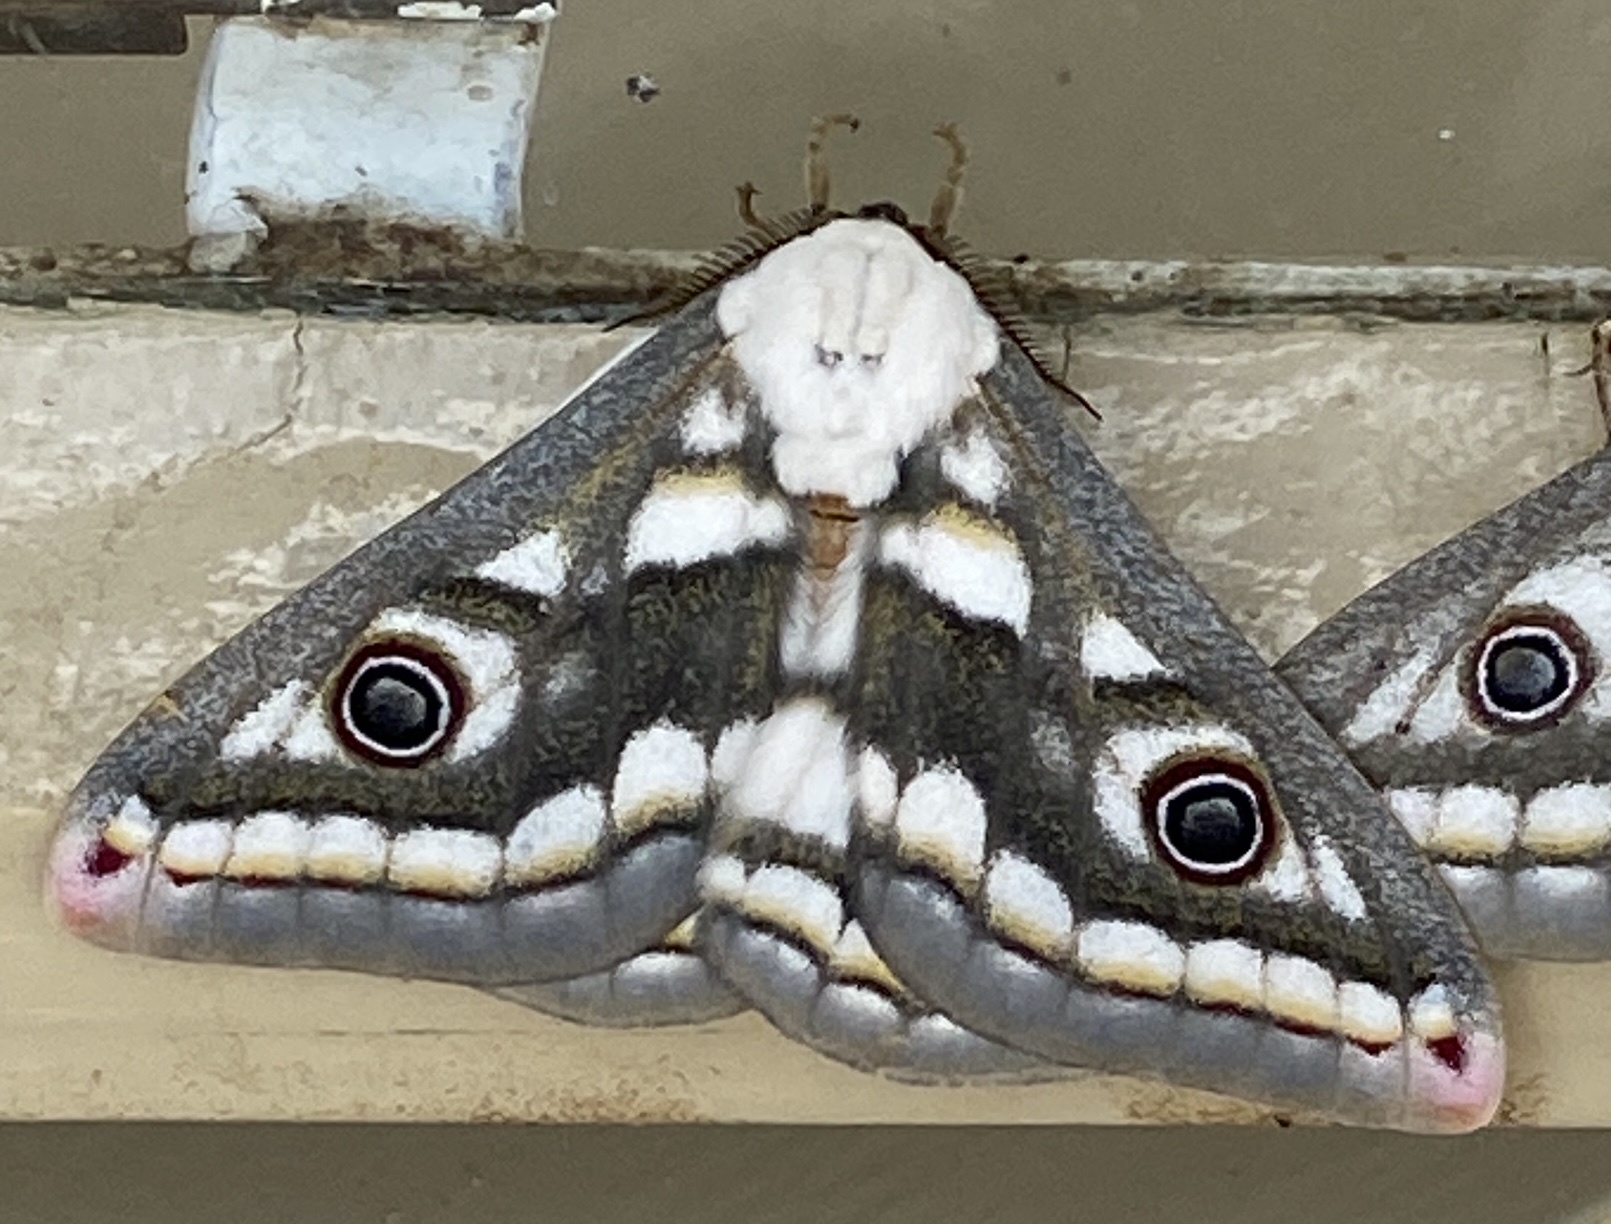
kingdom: Animalia
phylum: Arthropoda
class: Insecta
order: Lepidoptera
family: Saturniidae
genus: Heniocha
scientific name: Heniocha bioculata
